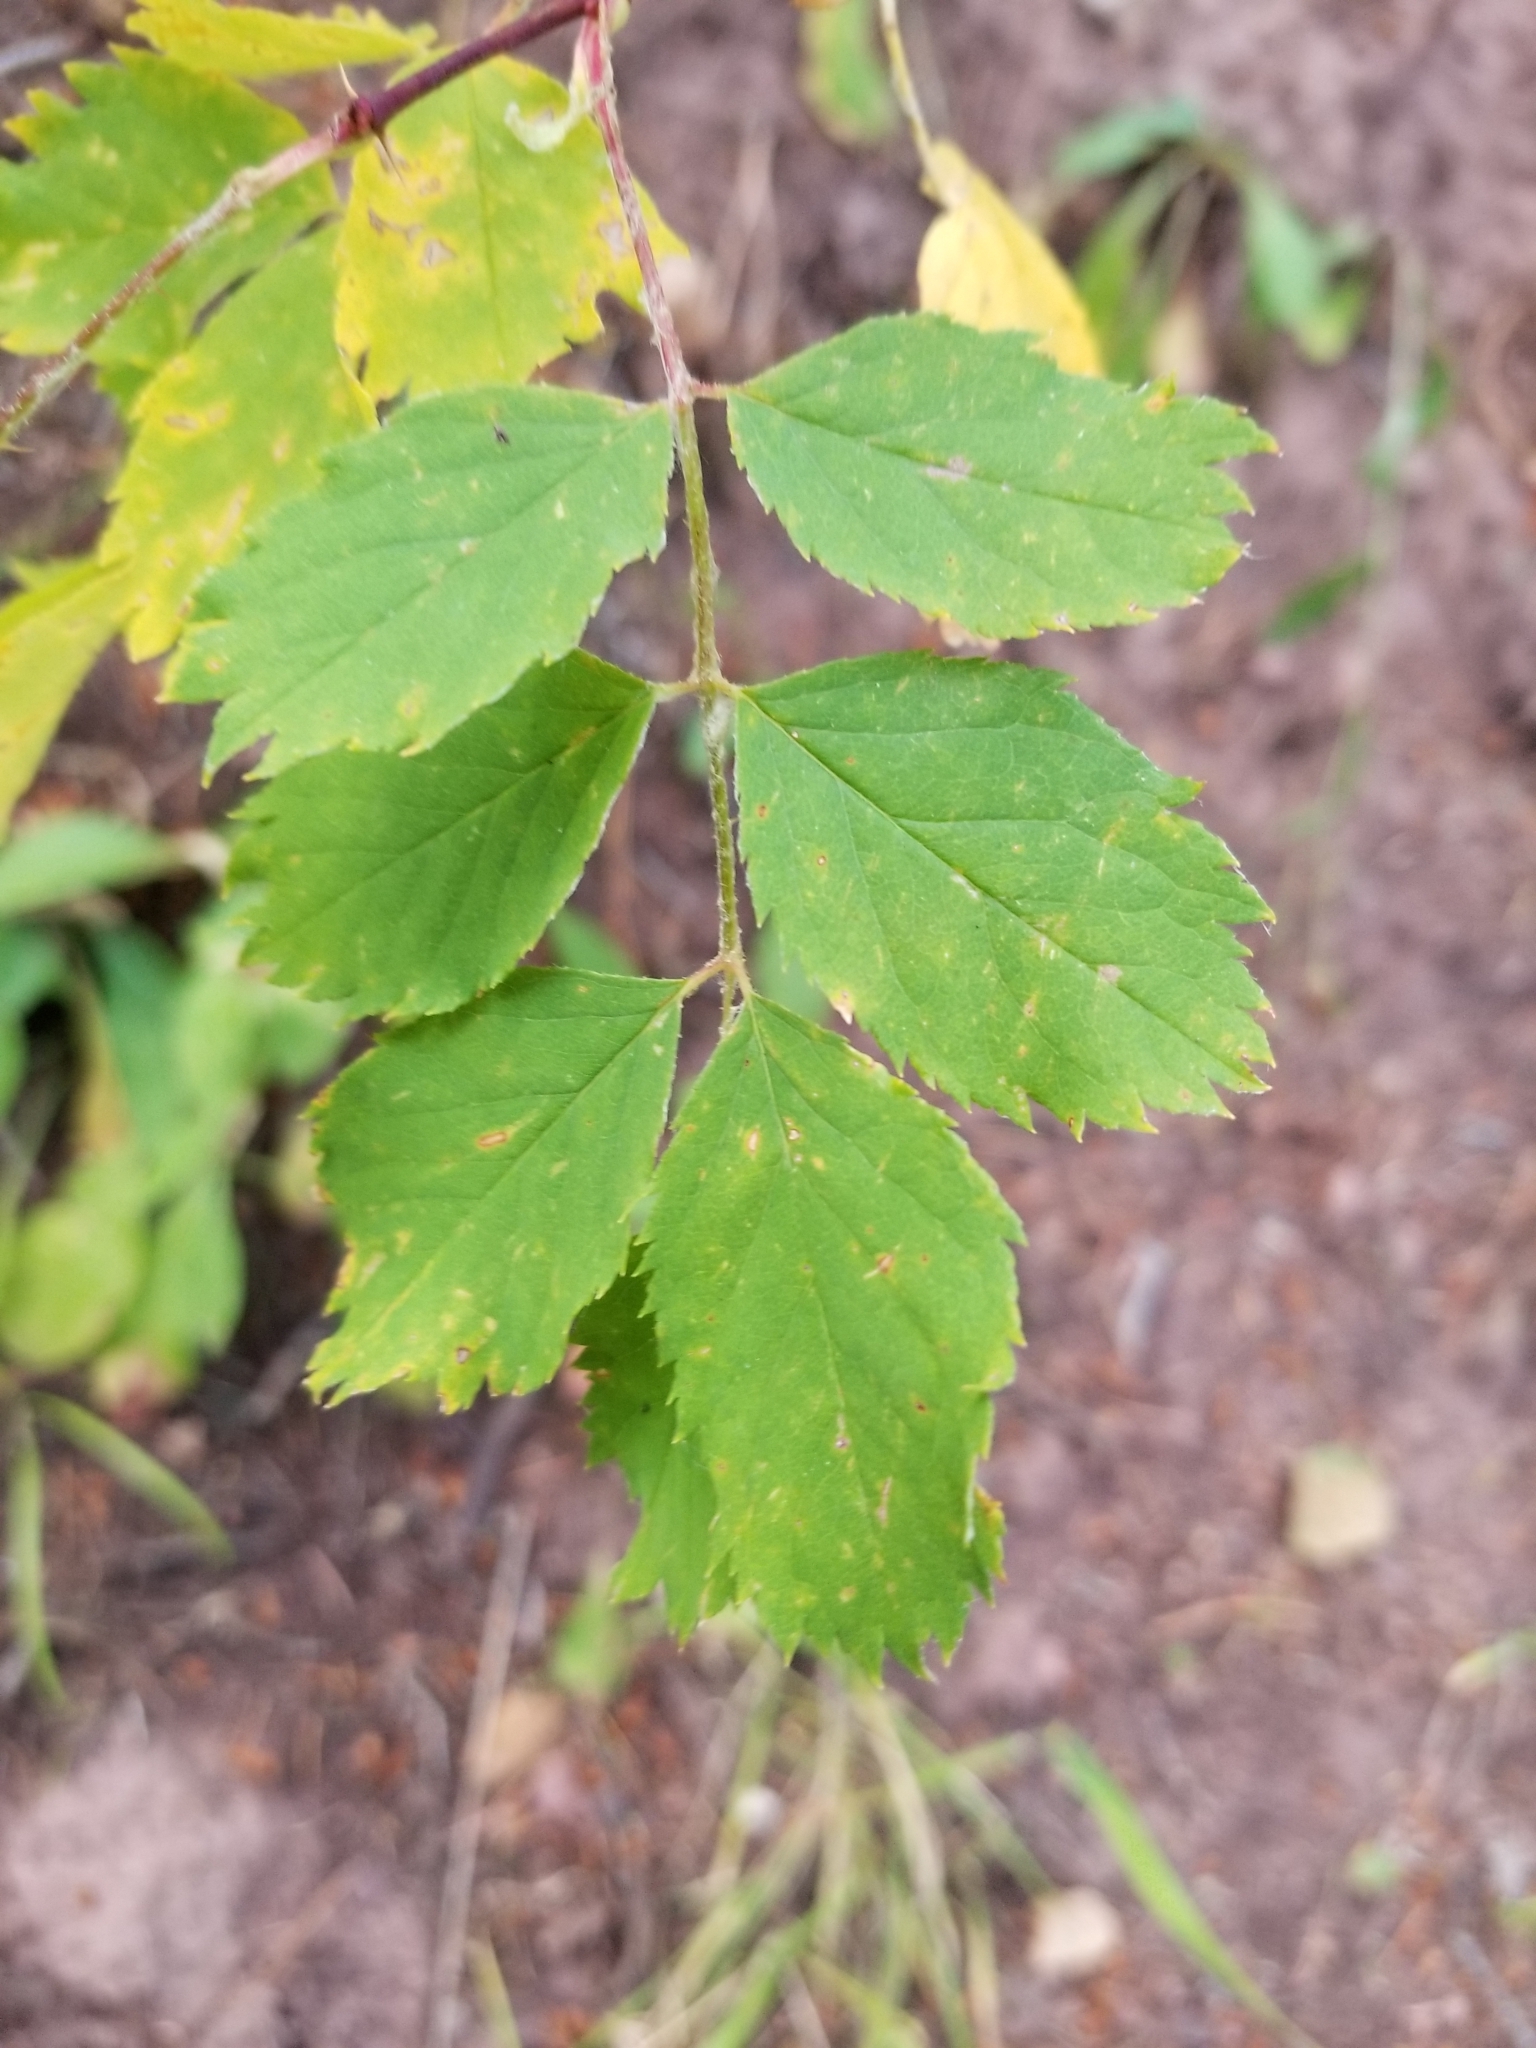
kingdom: Plantae
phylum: Tracheophyta
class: Magnoliopsida
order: Rosales
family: Rosaceae
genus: Rosa
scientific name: Rosa woodsii
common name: Woods's rose
